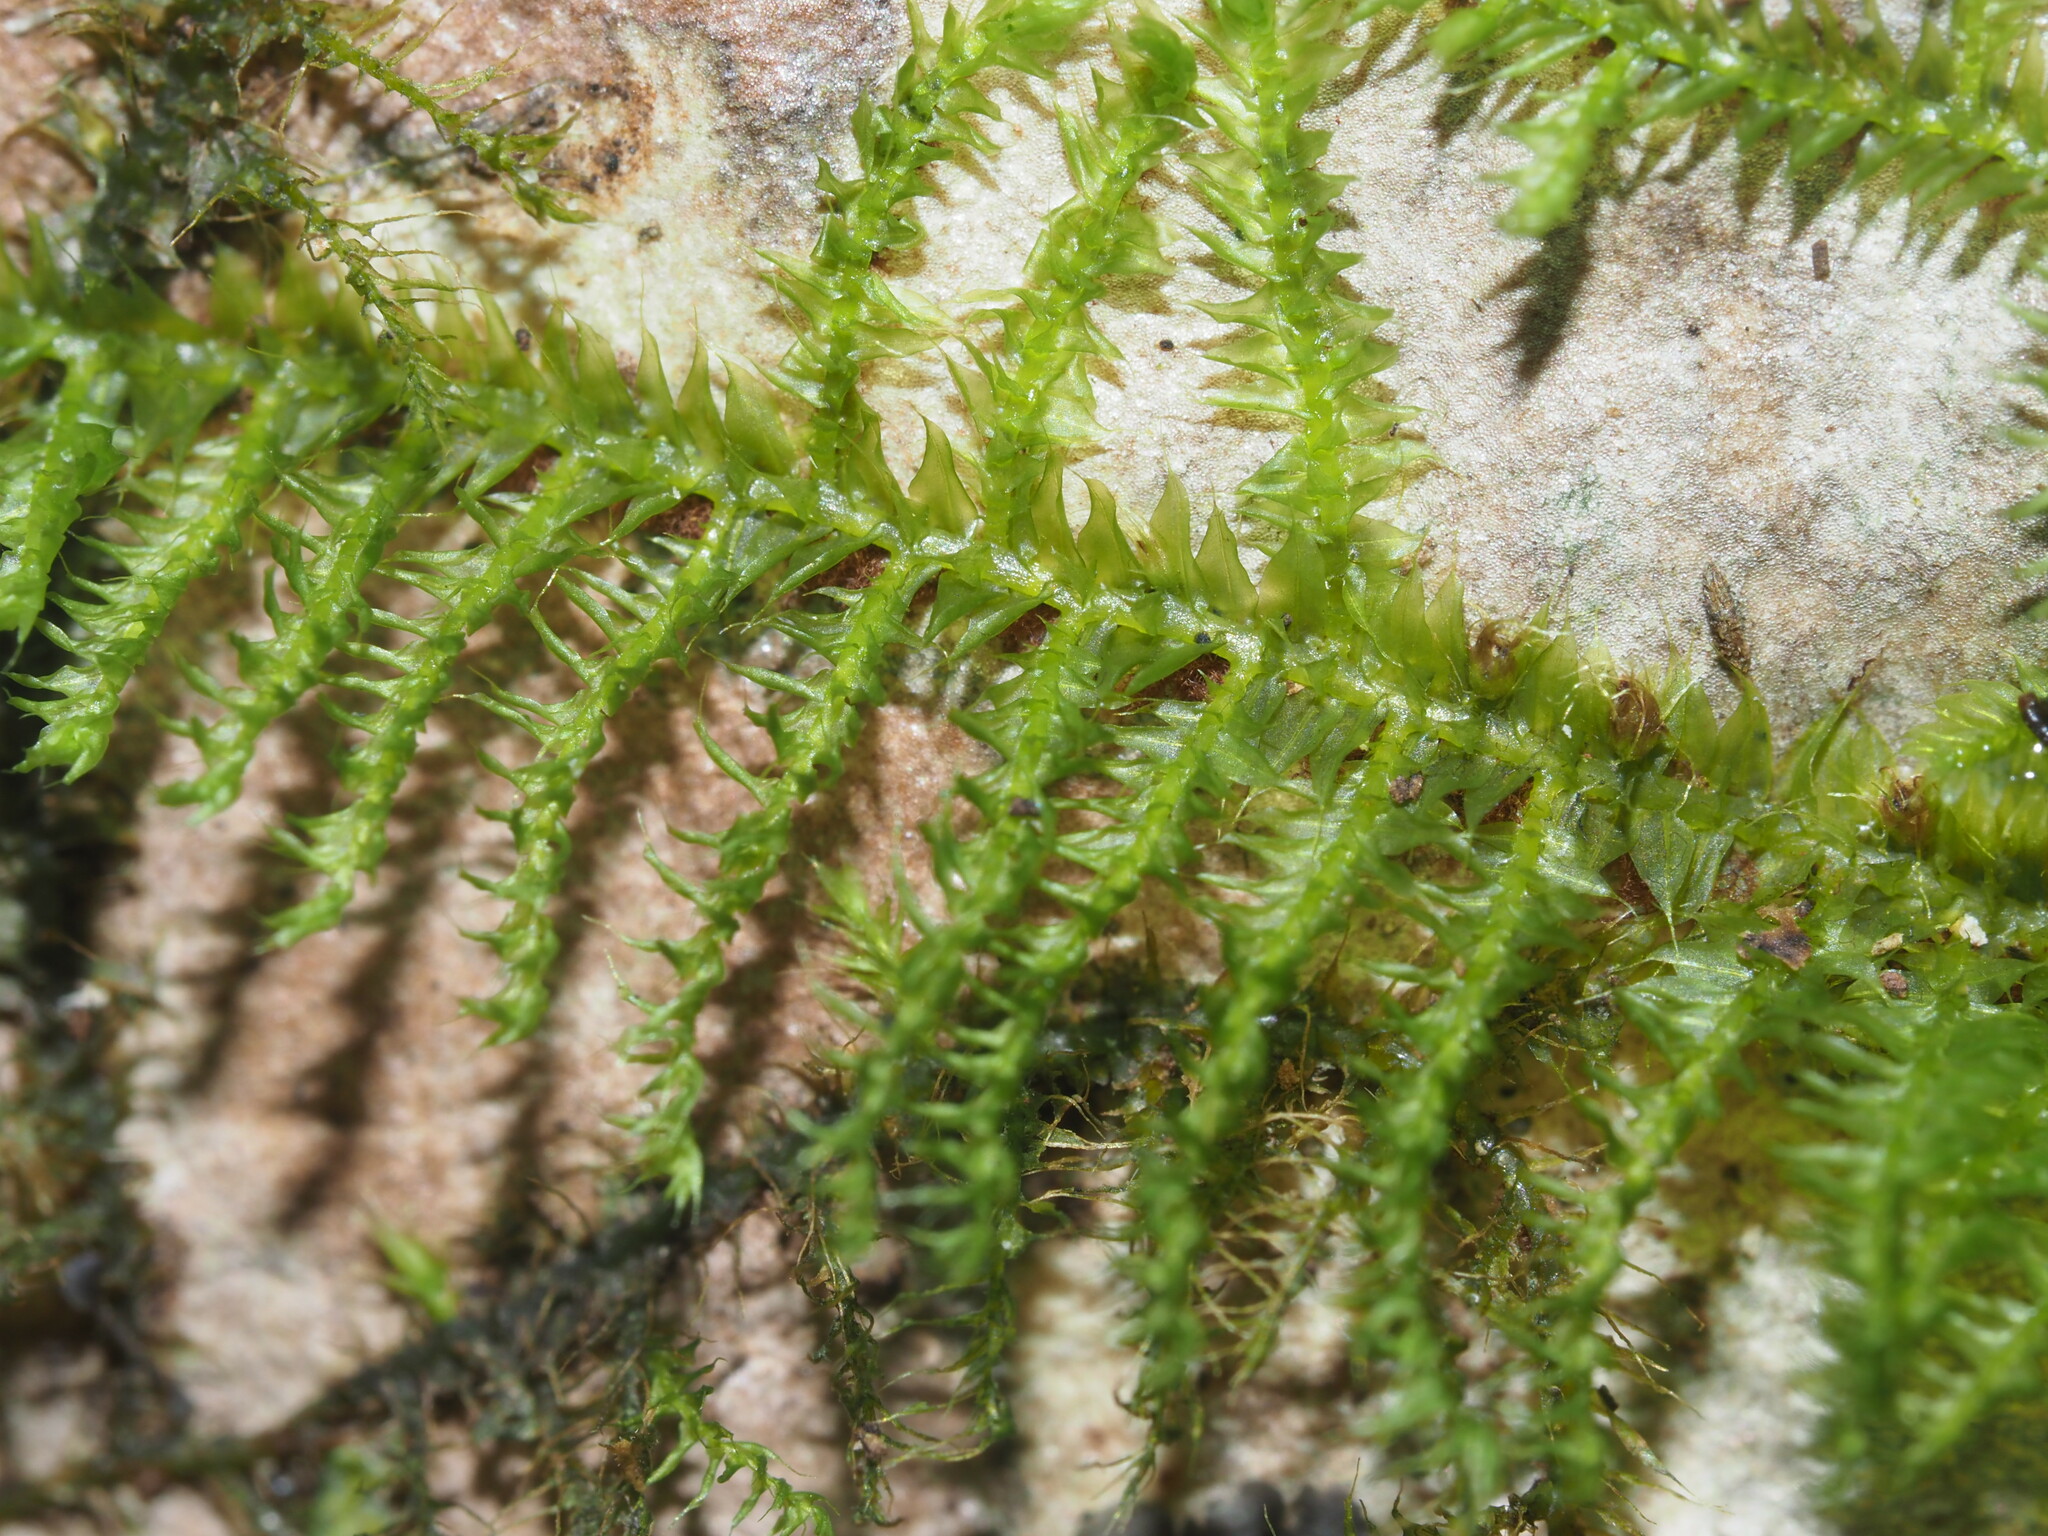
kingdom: Plantae
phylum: Bryophyta
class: Bryopsida
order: Hypnodendrales
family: Racopilaceae
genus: Racopilum
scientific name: Racopilum cuspidigerum
